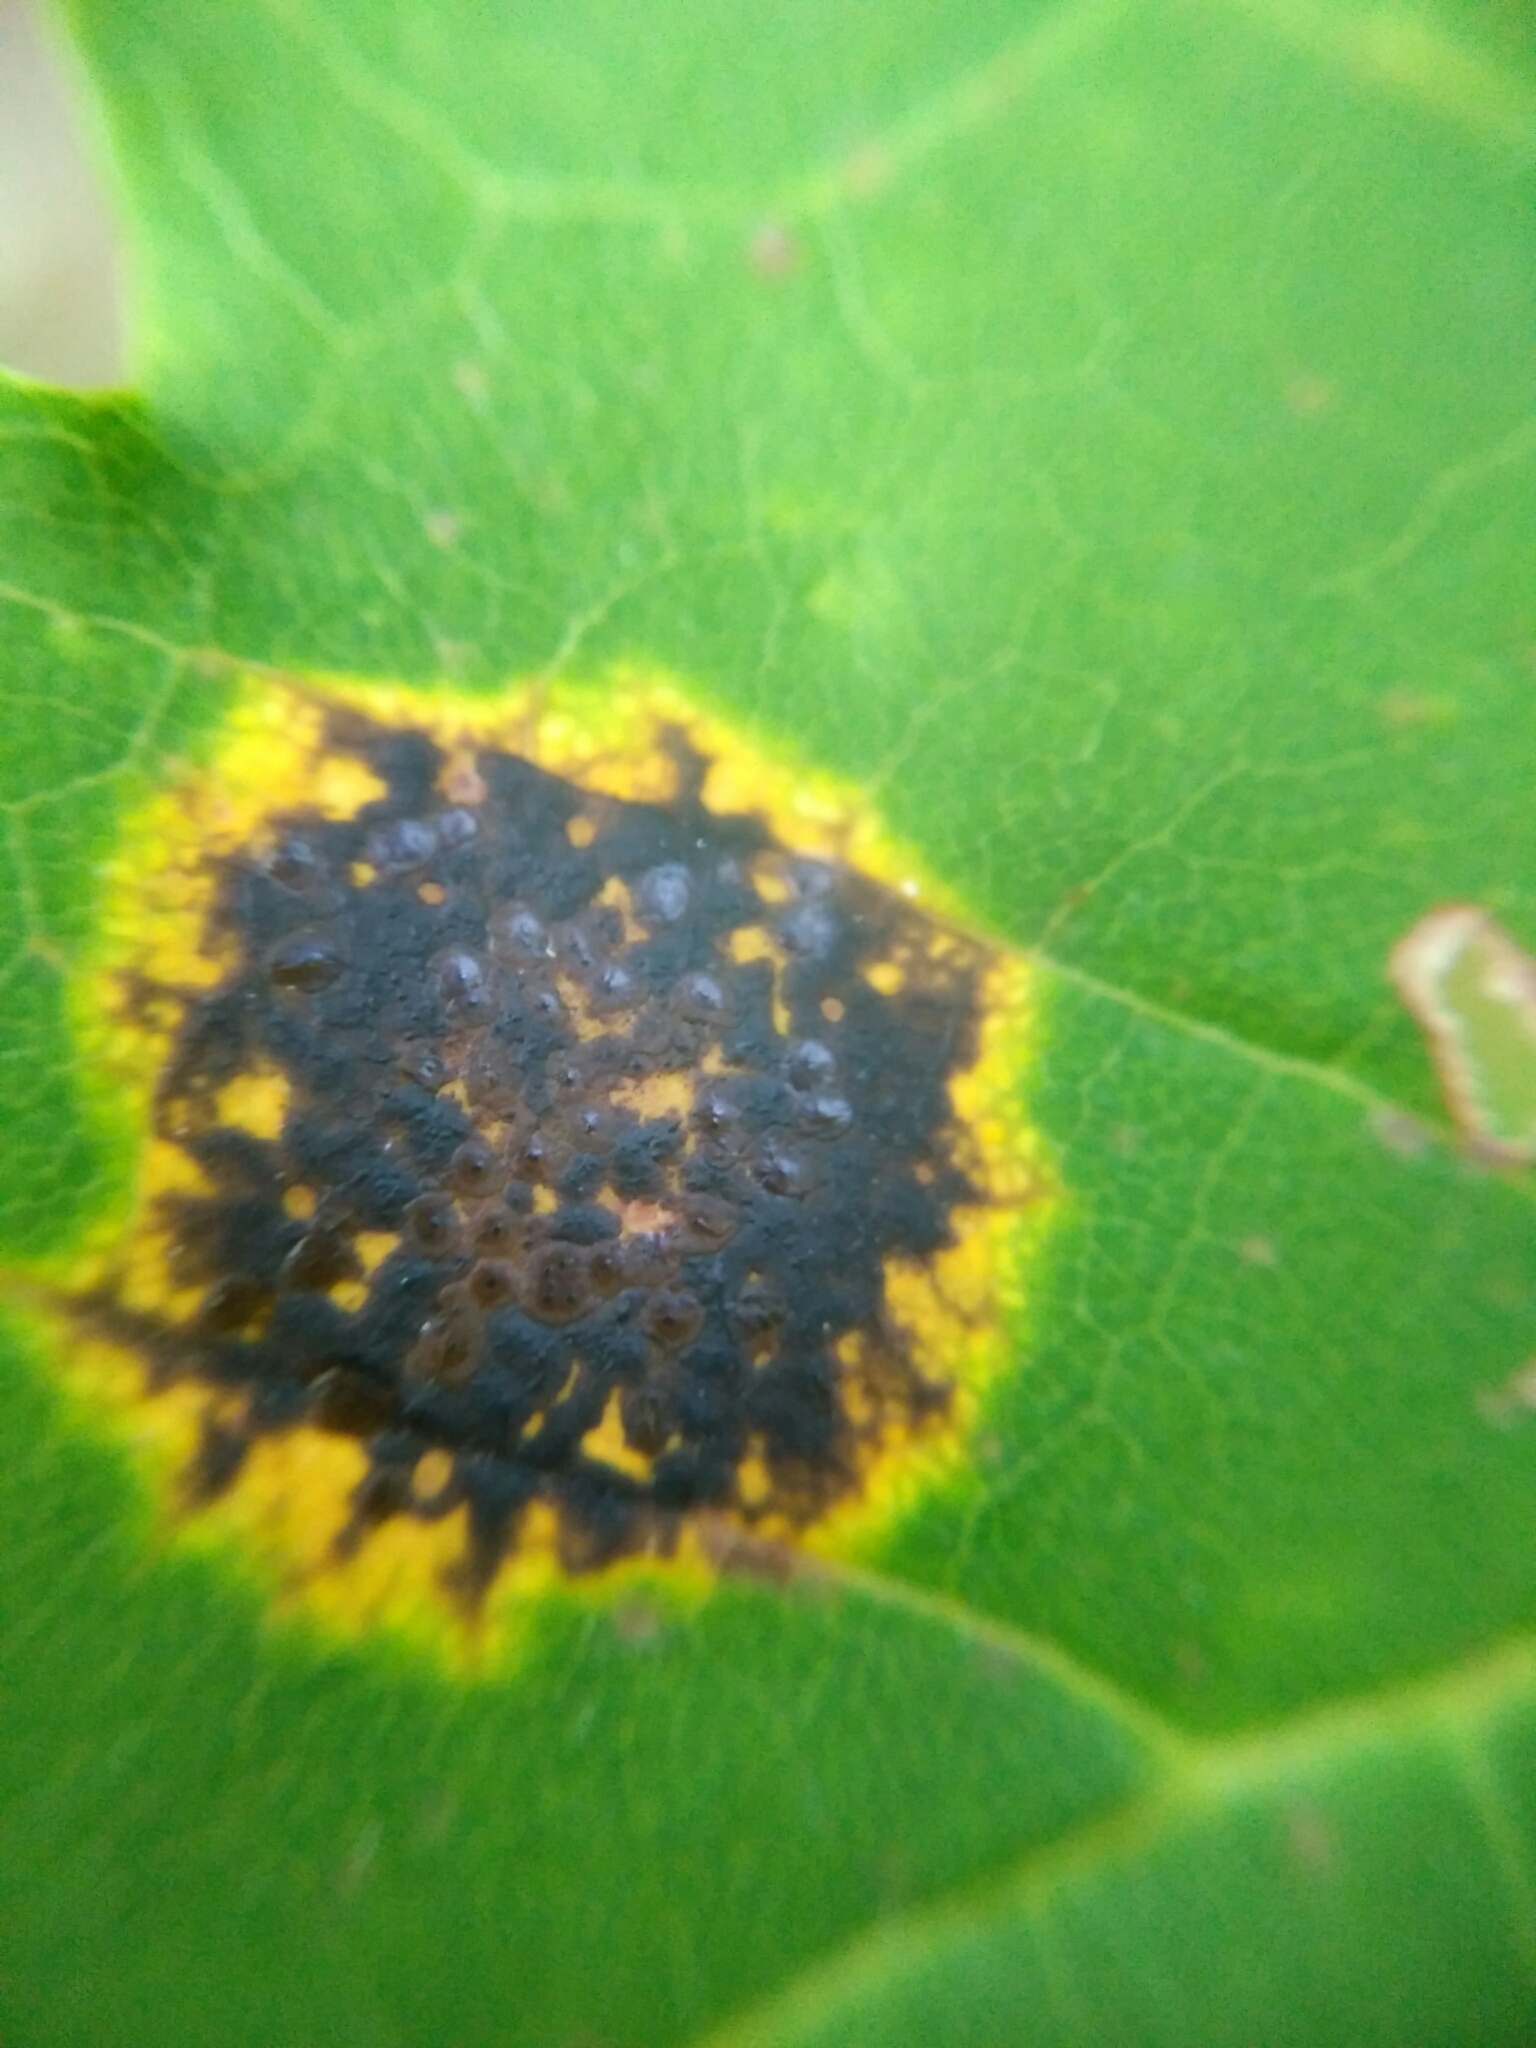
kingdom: Fungi
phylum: Ascomycota
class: Leotiomycetes
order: Rhytismatales
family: Rhytismataceae
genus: Rhytisma
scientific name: Rhytisma acerinum
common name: European tar spot
